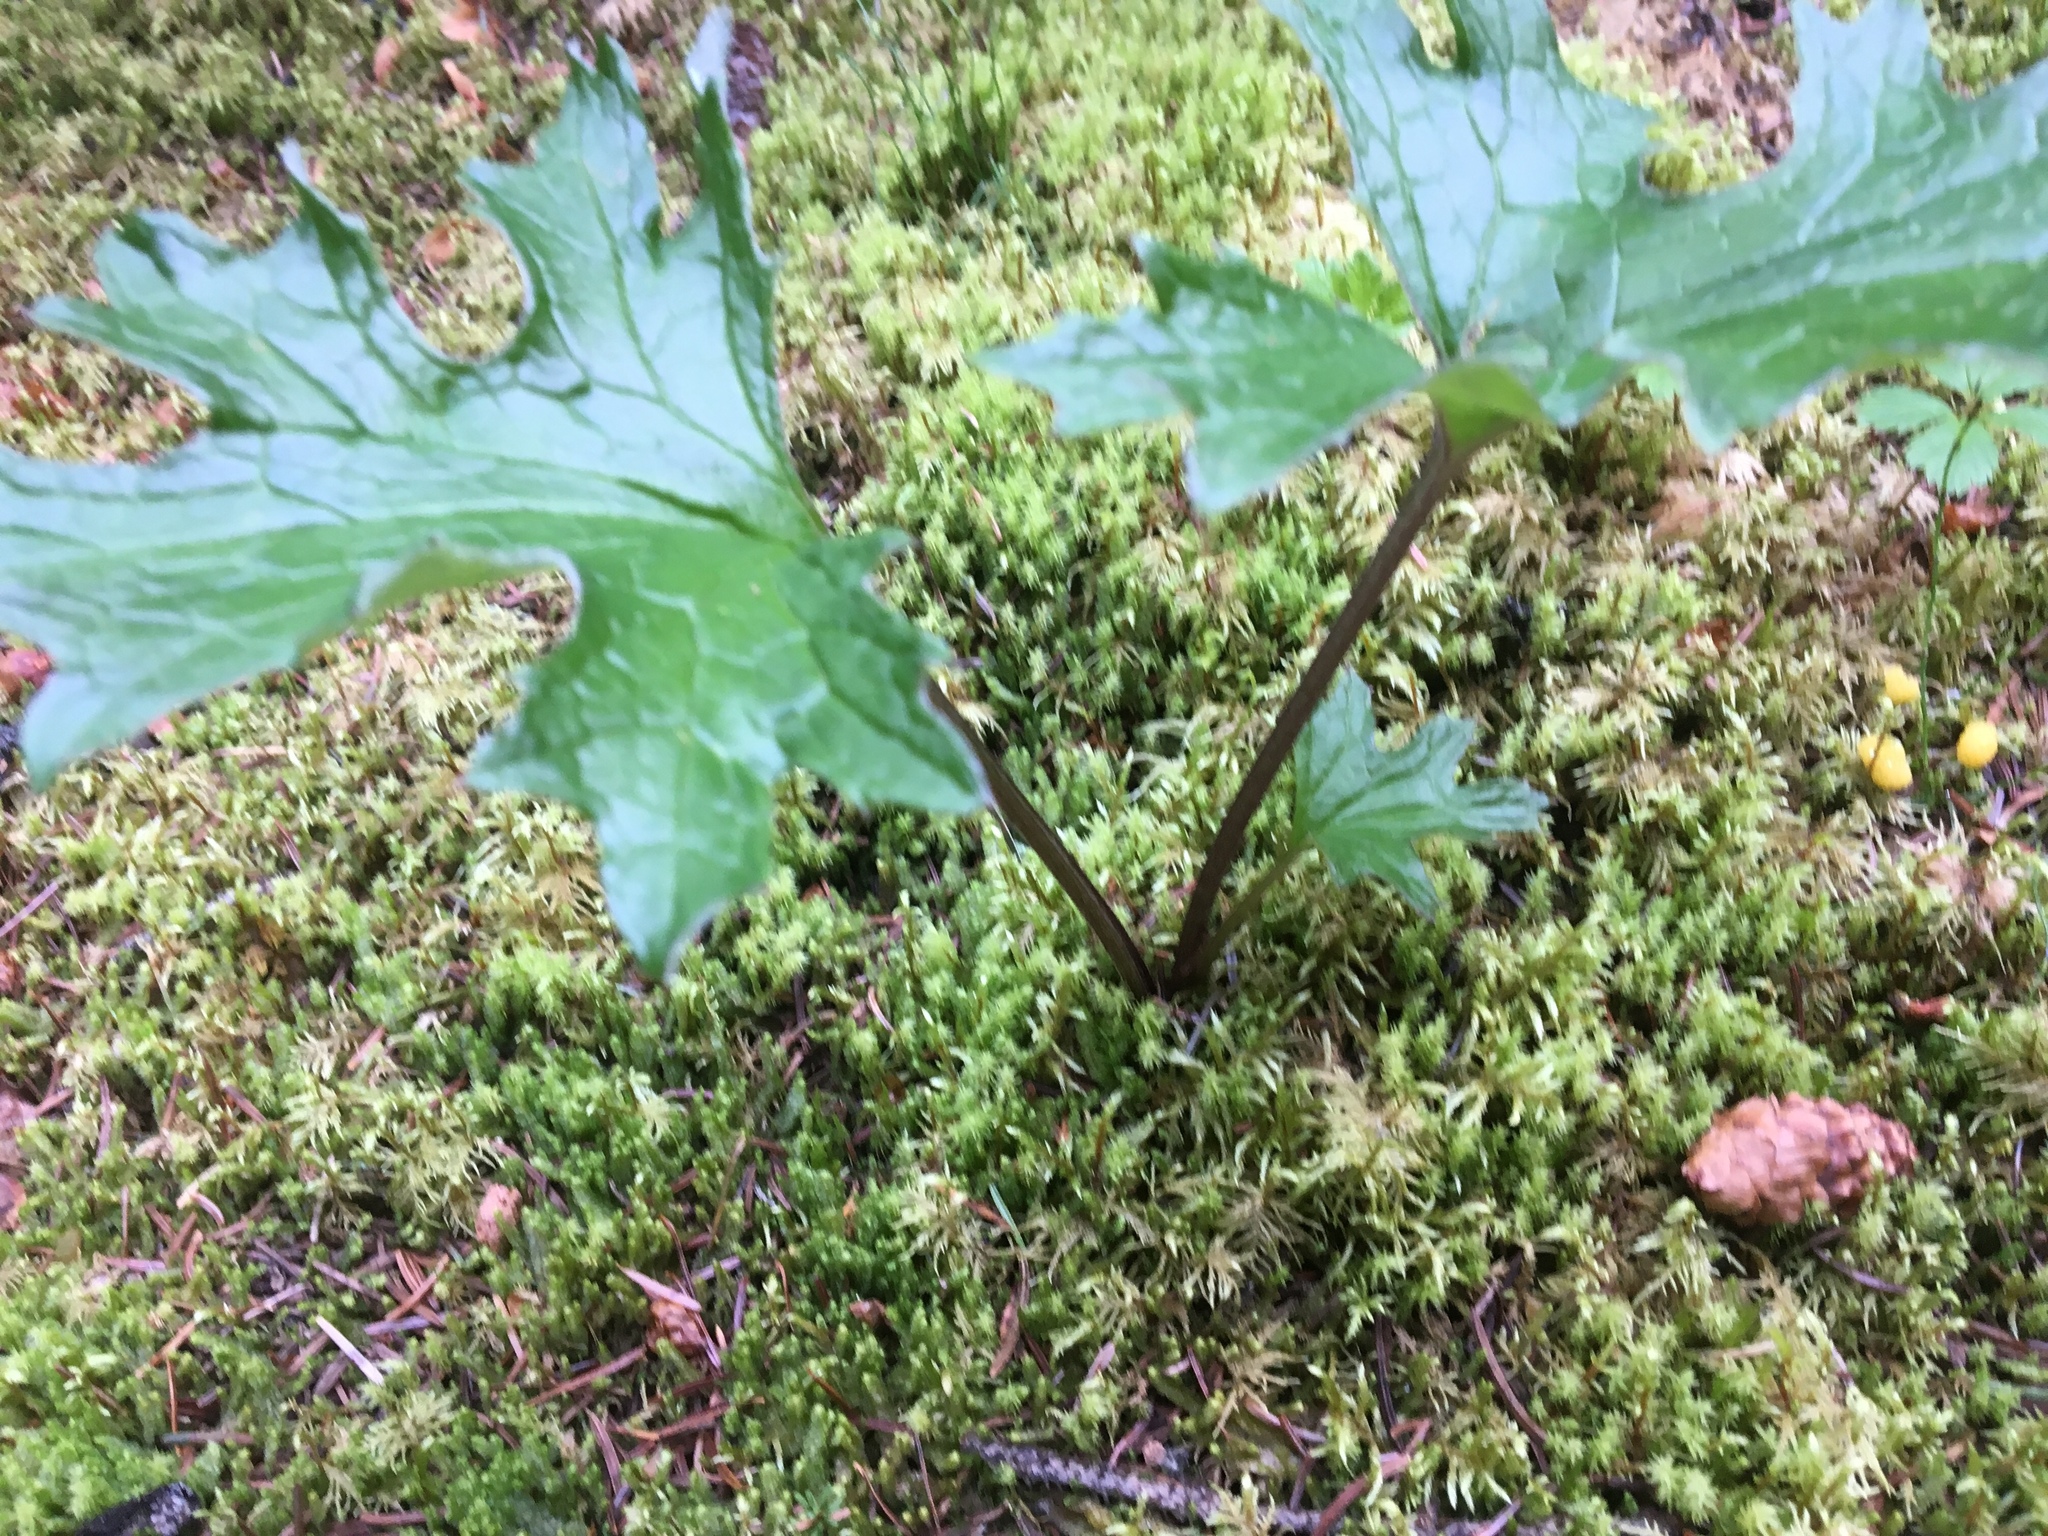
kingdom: Plantae
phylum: Tracheophyta
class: Magnoliopsida
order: Asterales
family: Asteraceae
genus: Petasites
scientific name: Petasites frigidus
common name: Arctic butterbur
